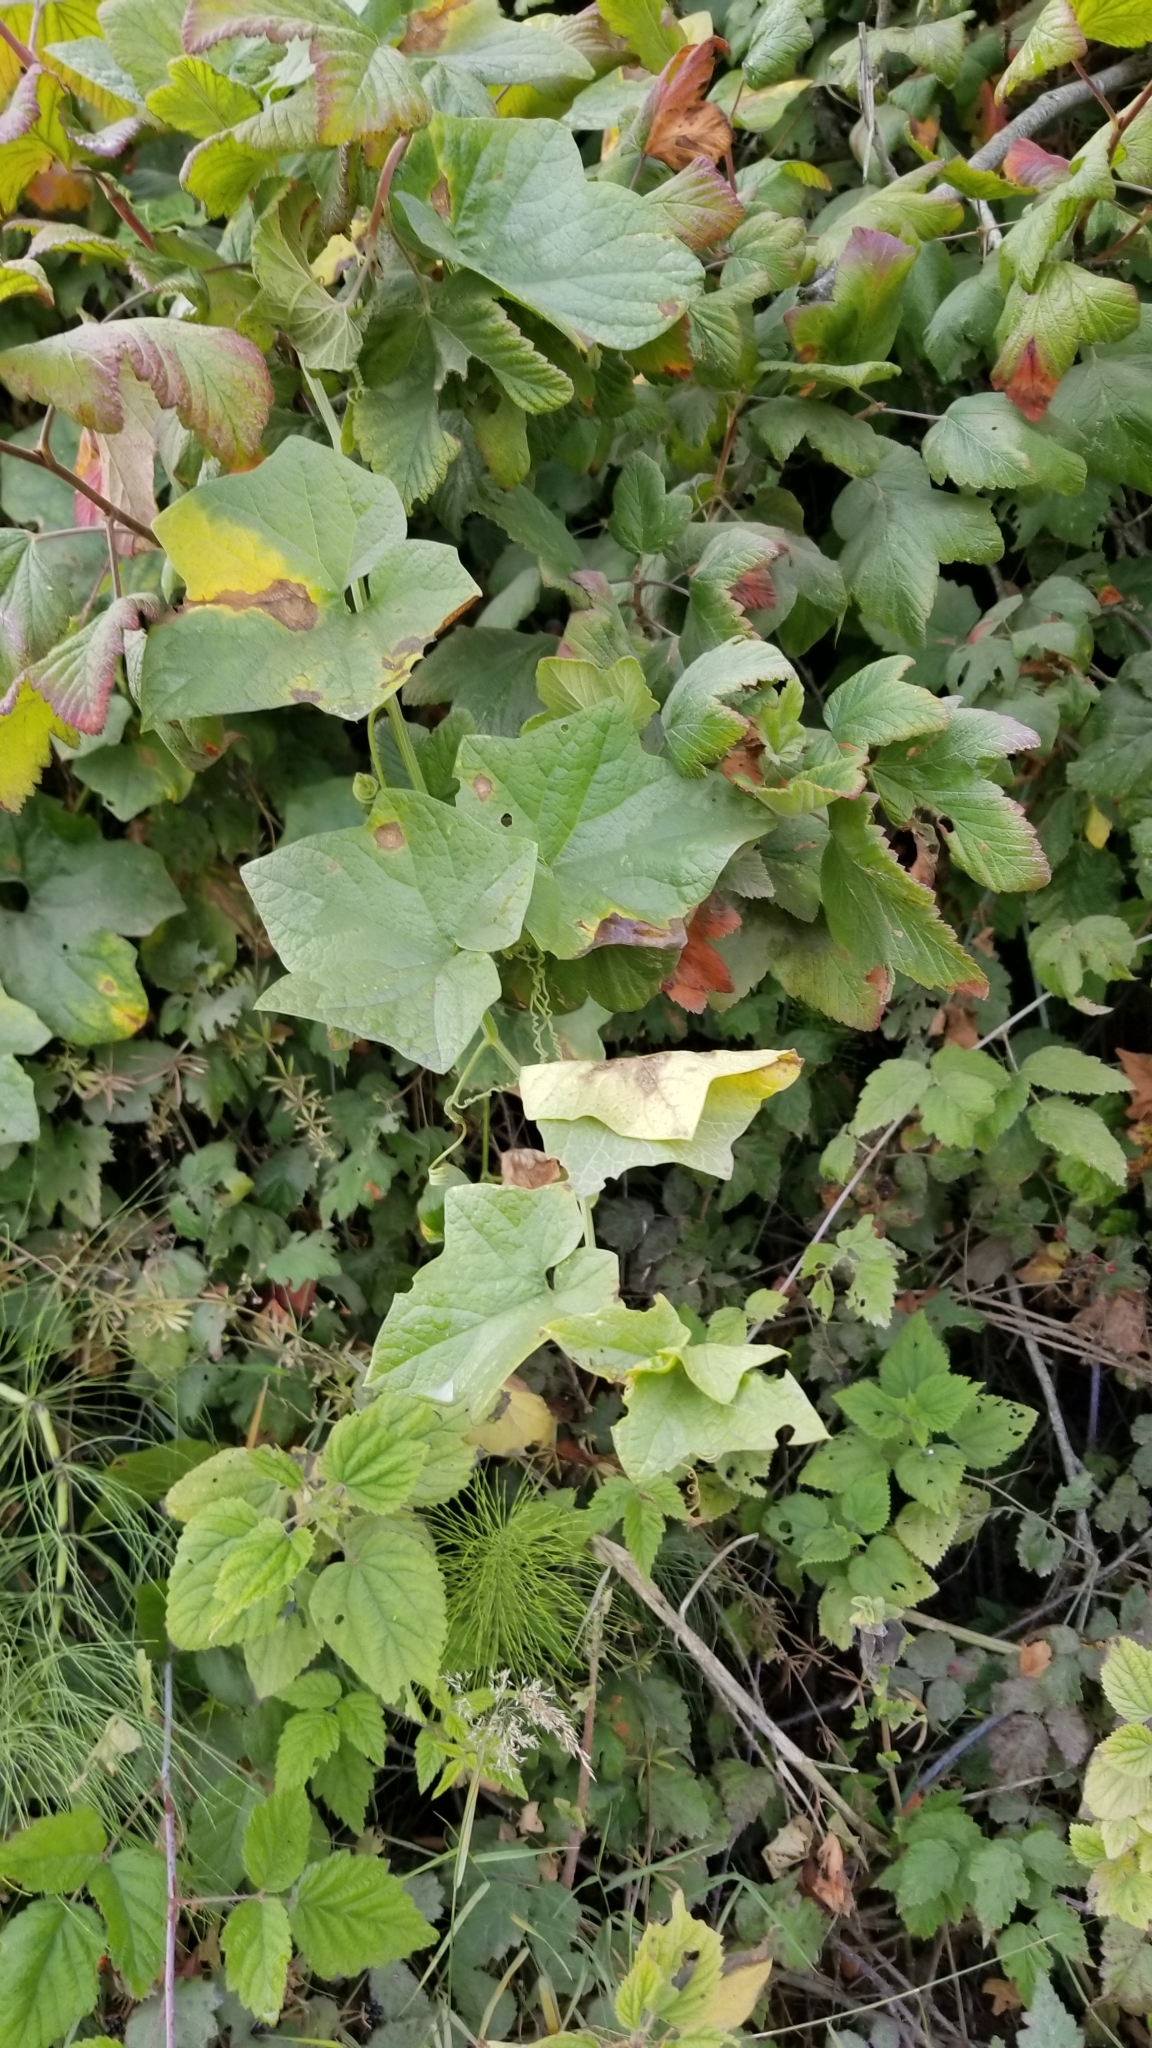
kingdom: Plantae
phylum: Tracheophyta
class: Magnoliopsida
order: Cucurbitales
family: Cucurbitaceae
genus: Marah
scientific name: Marah oregana
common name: Coastal manroot
